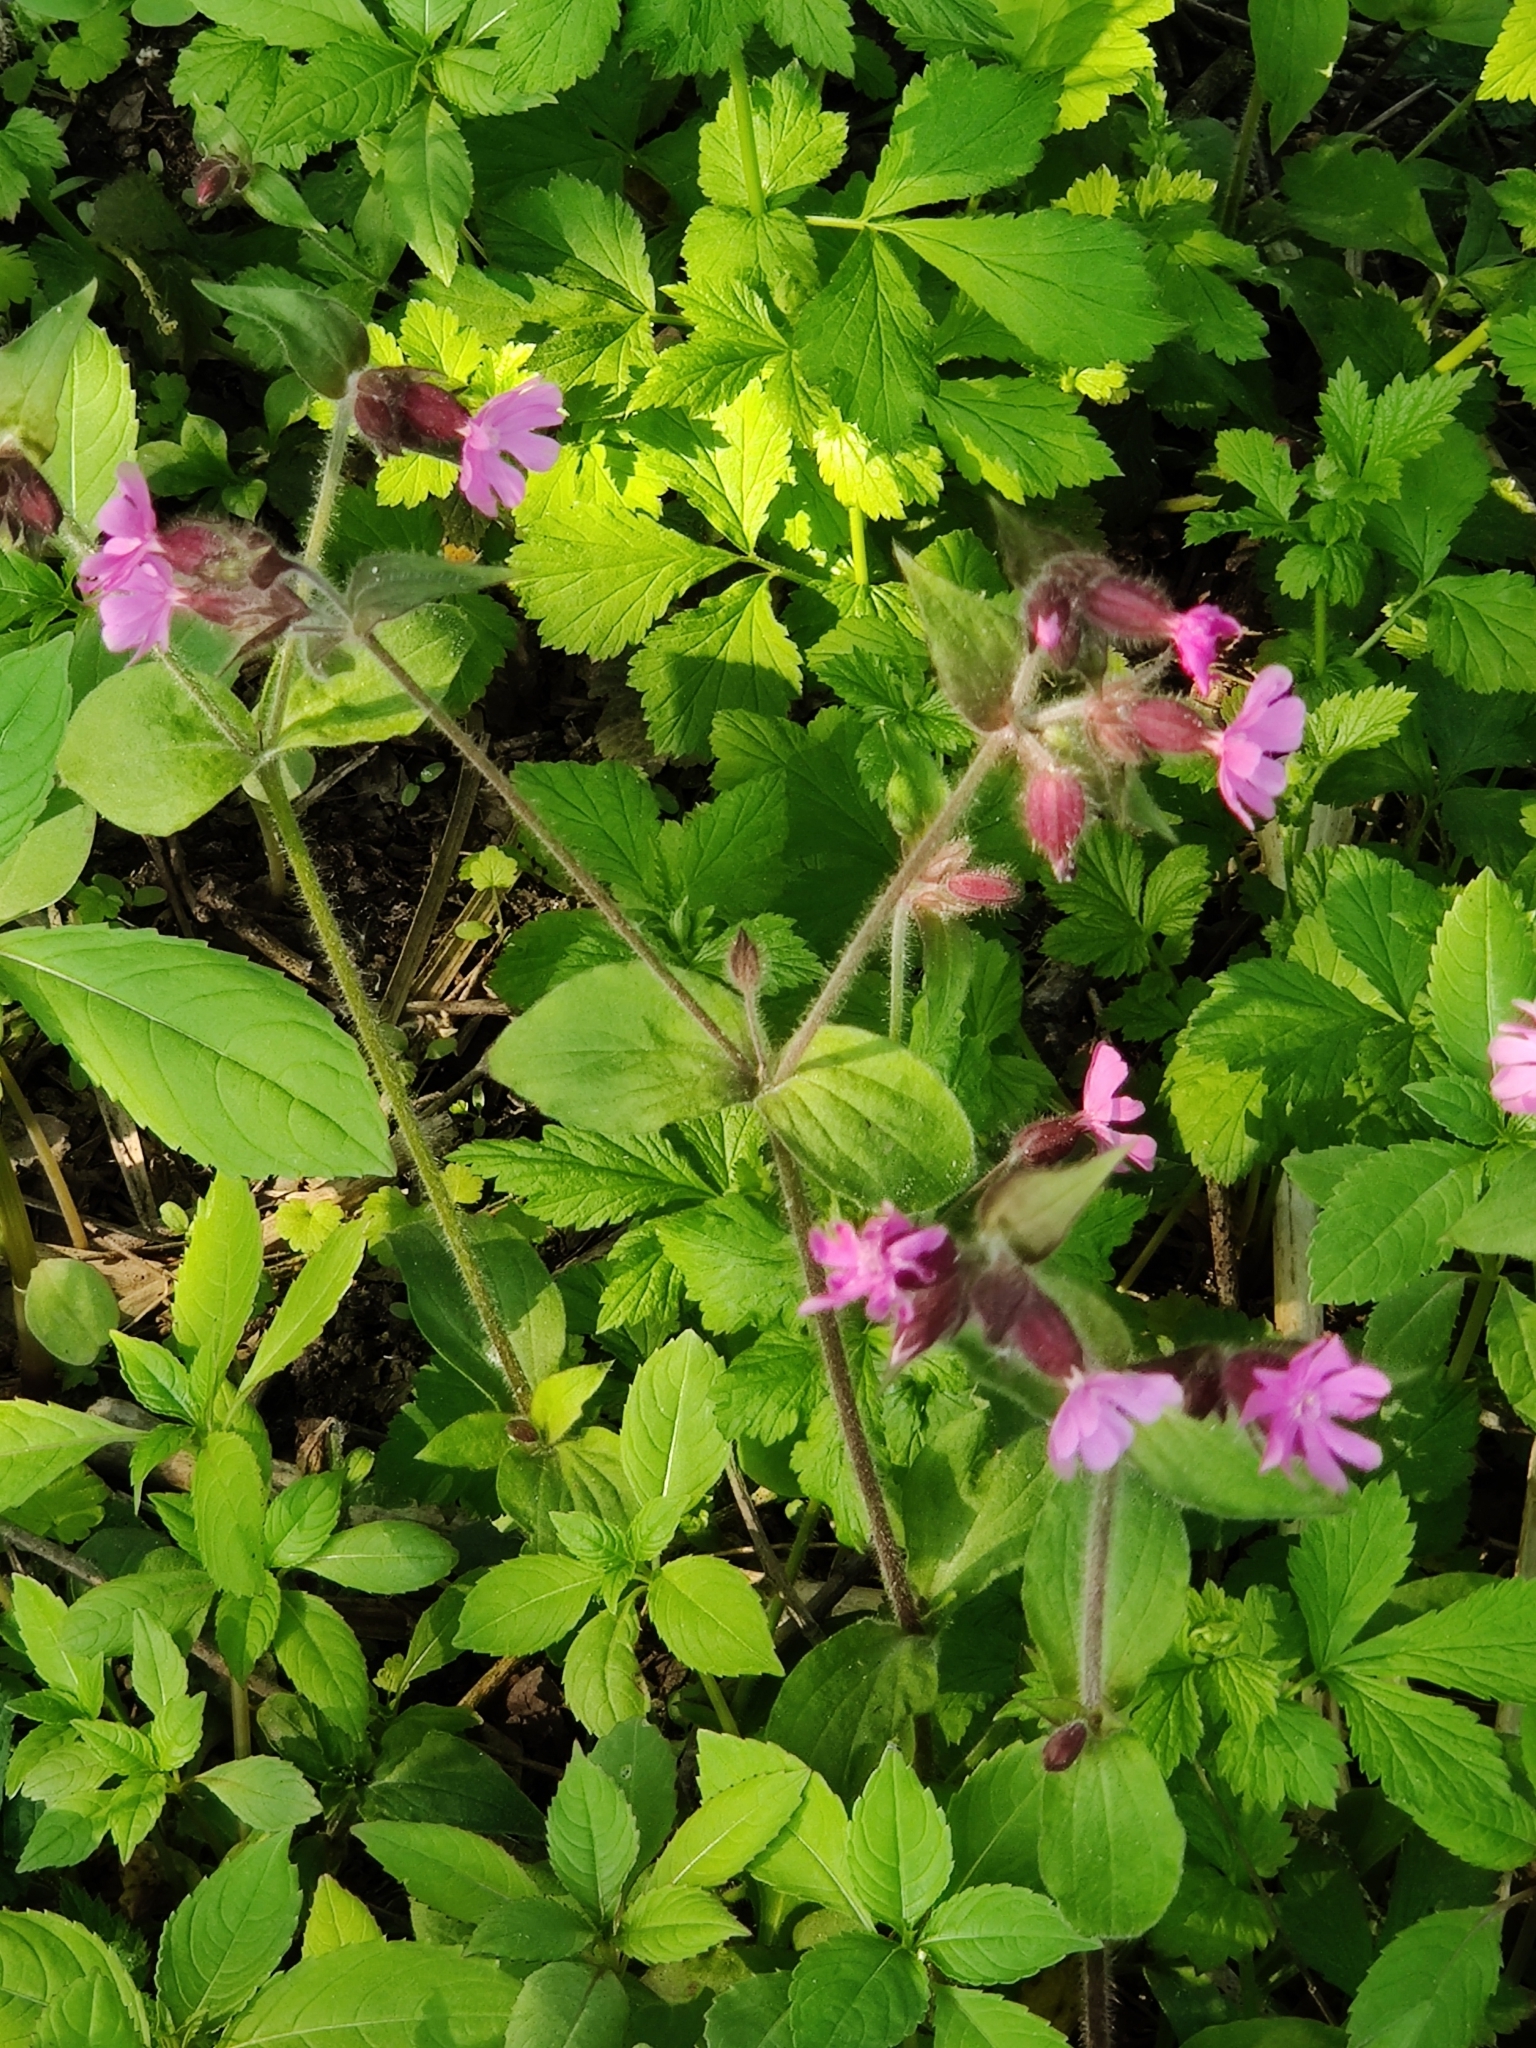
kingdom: Plantae
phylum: Tracheophyta
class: Magnoliopsida
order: Caryophyllales
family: Caryophyllaceae
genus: Silene
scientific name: Silene dioica
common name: Red campion
